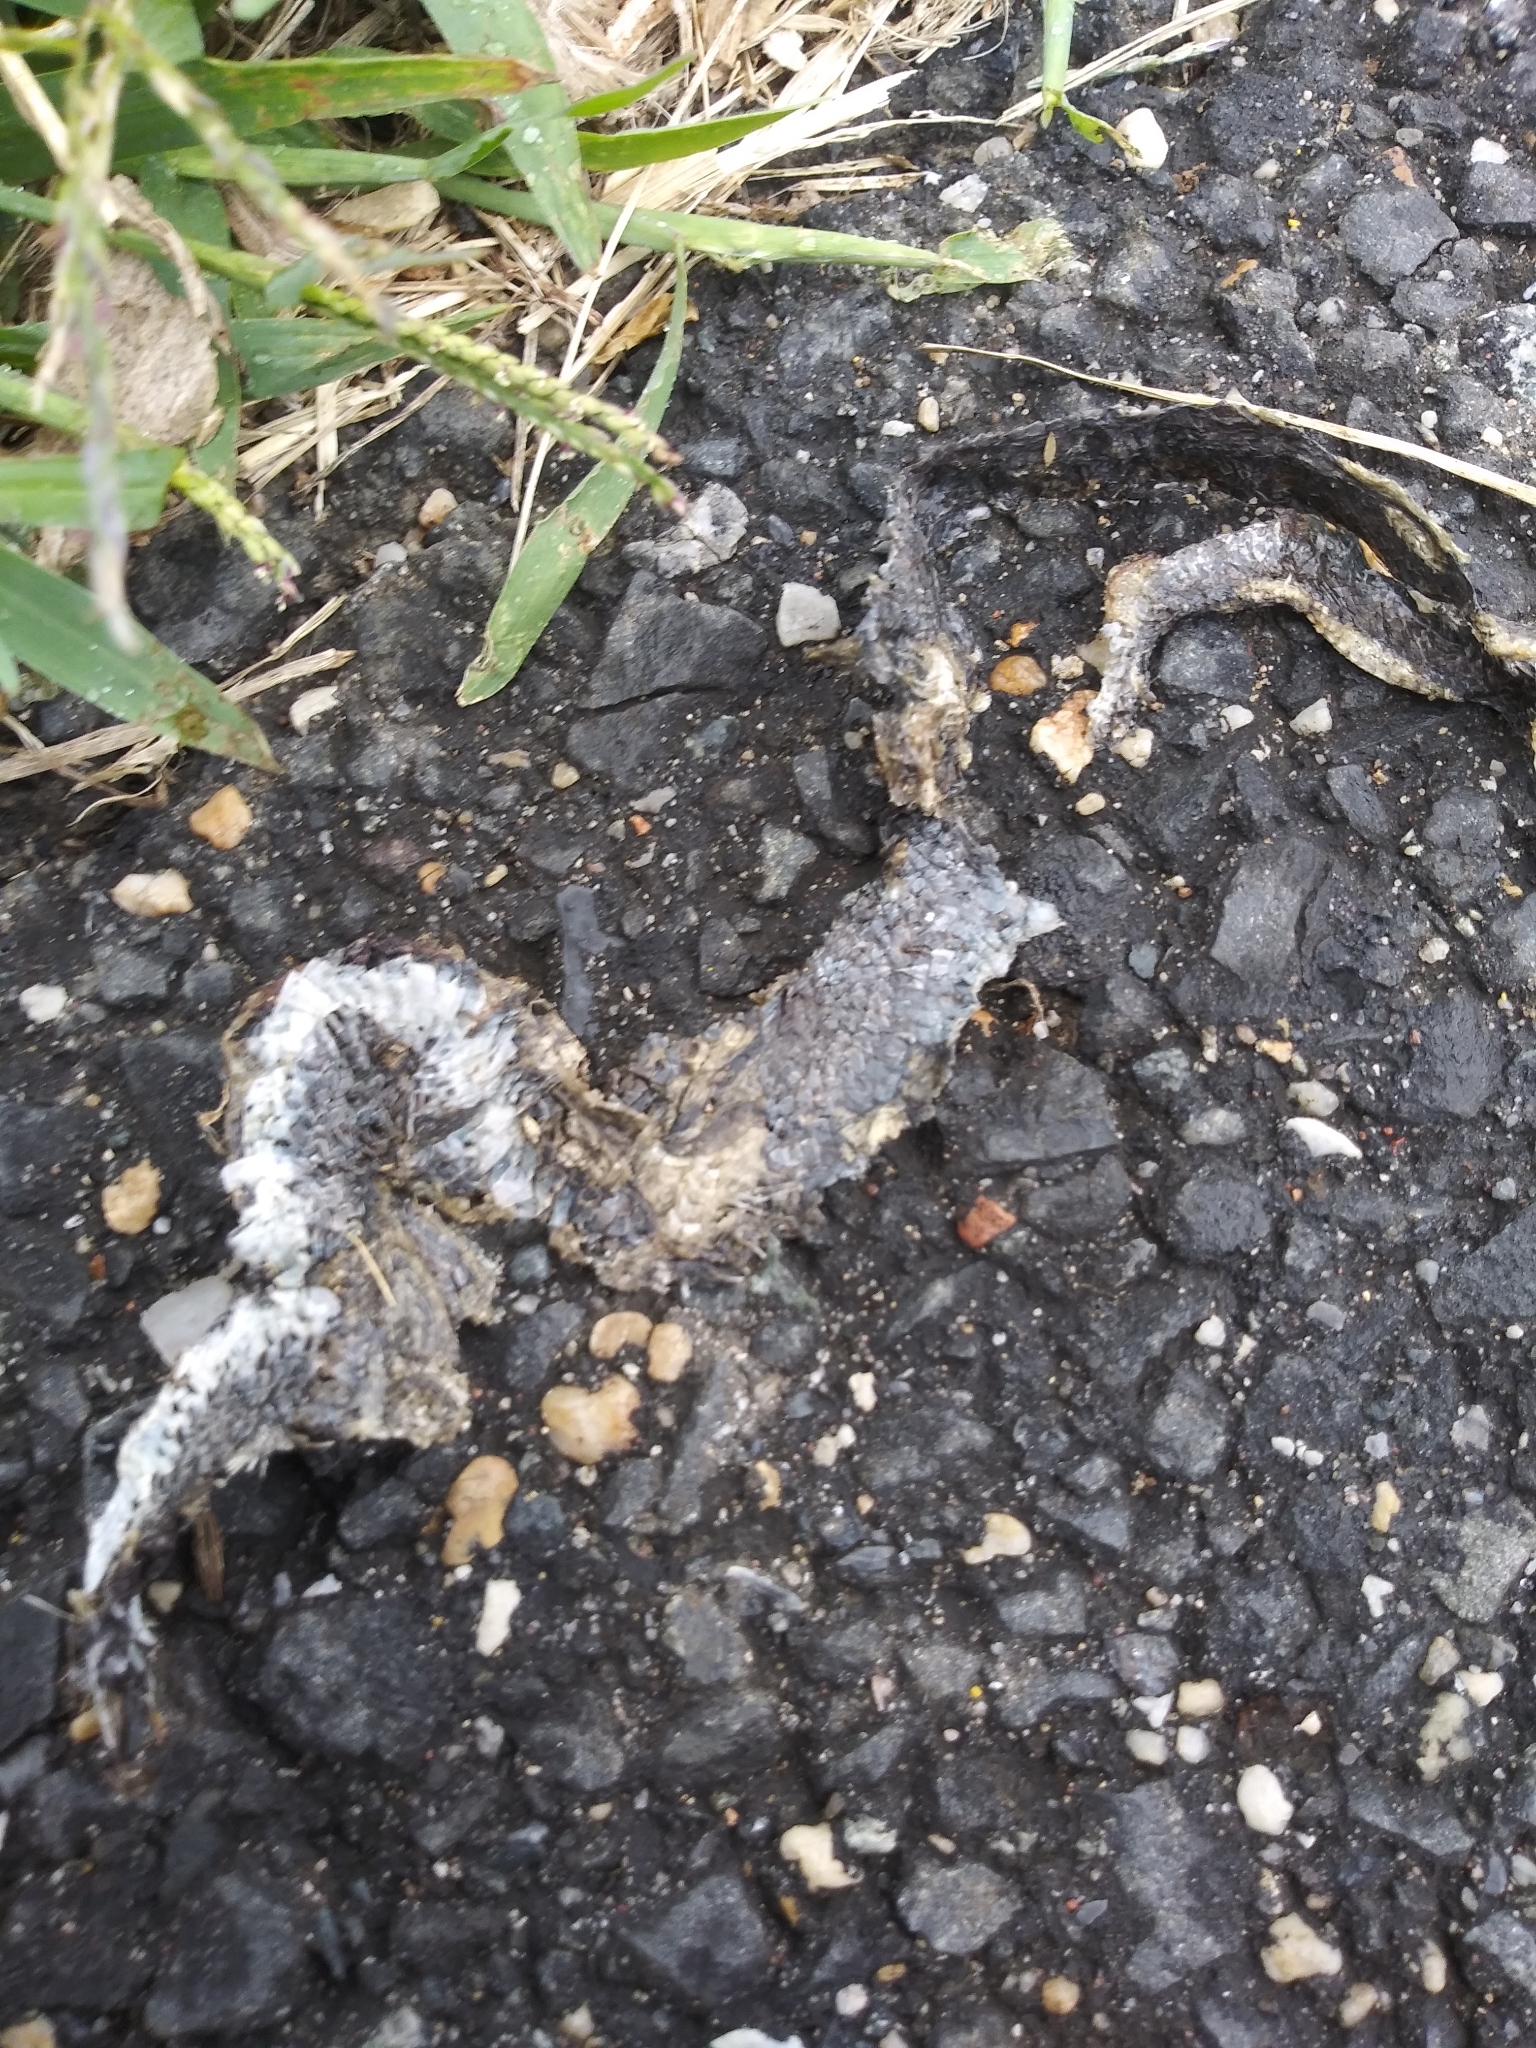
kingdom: Animalia
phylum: Chordata
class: Squamata
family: Colubridae
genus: Coluber
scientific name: Coluber constrictor
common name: Eastern racer
